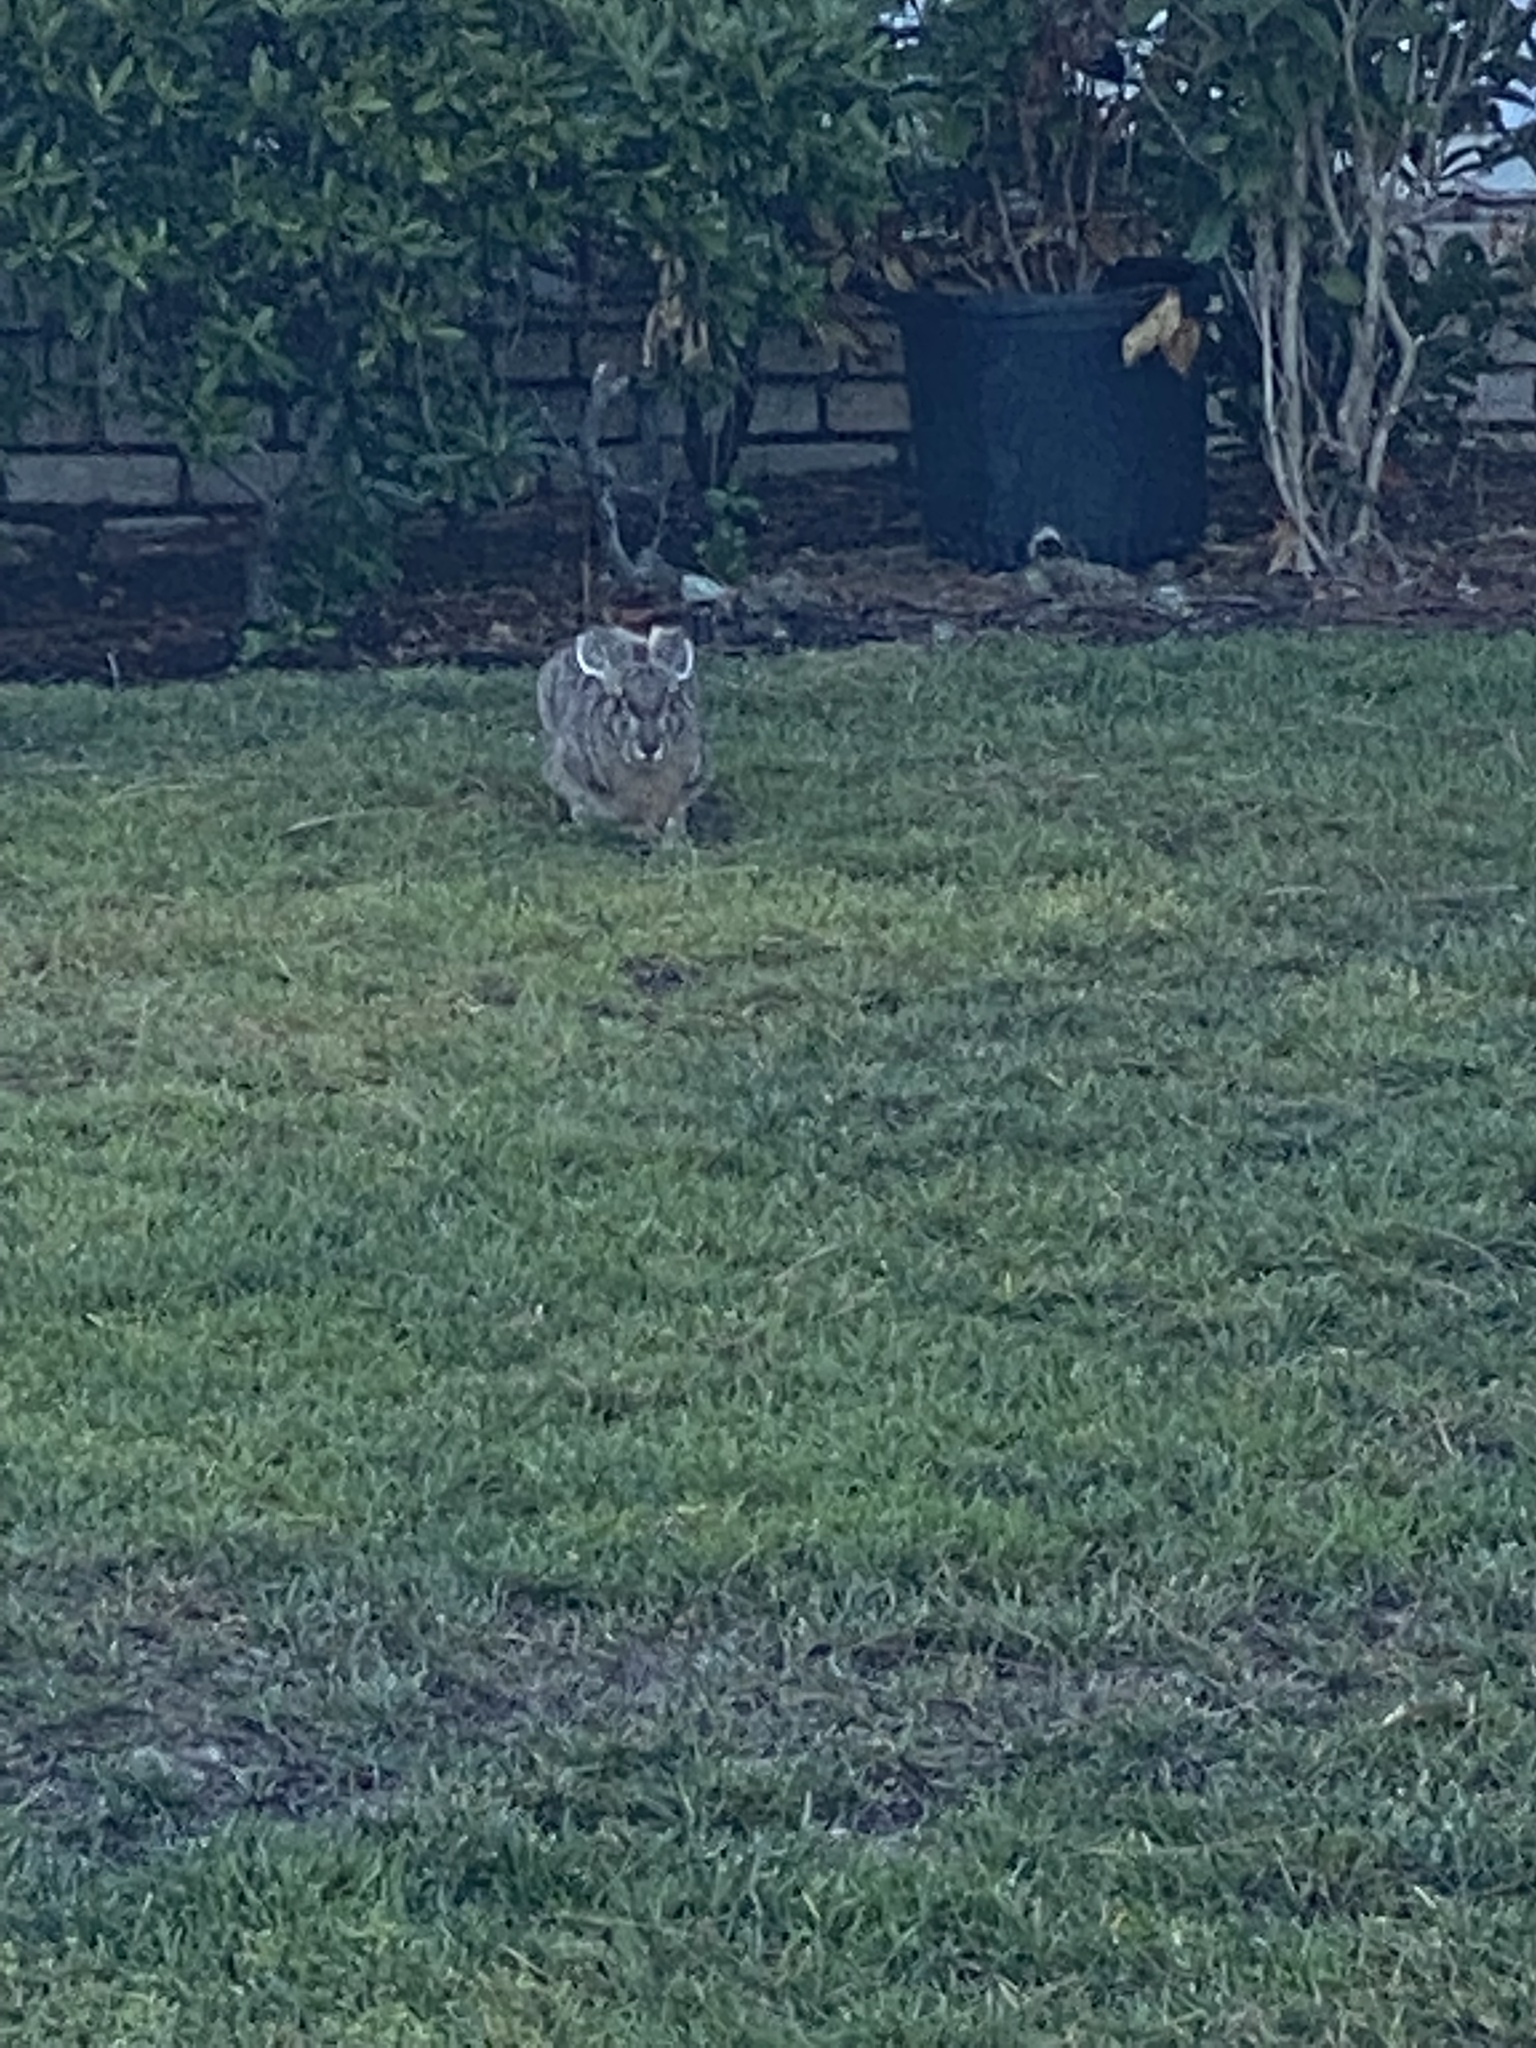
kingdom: Animalia
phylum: Chordata
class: Mammalia
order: Lagomorpha
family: Leporidae
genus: Lepus
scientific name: Lepus californicus
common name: Black-tailed jackrabbit
